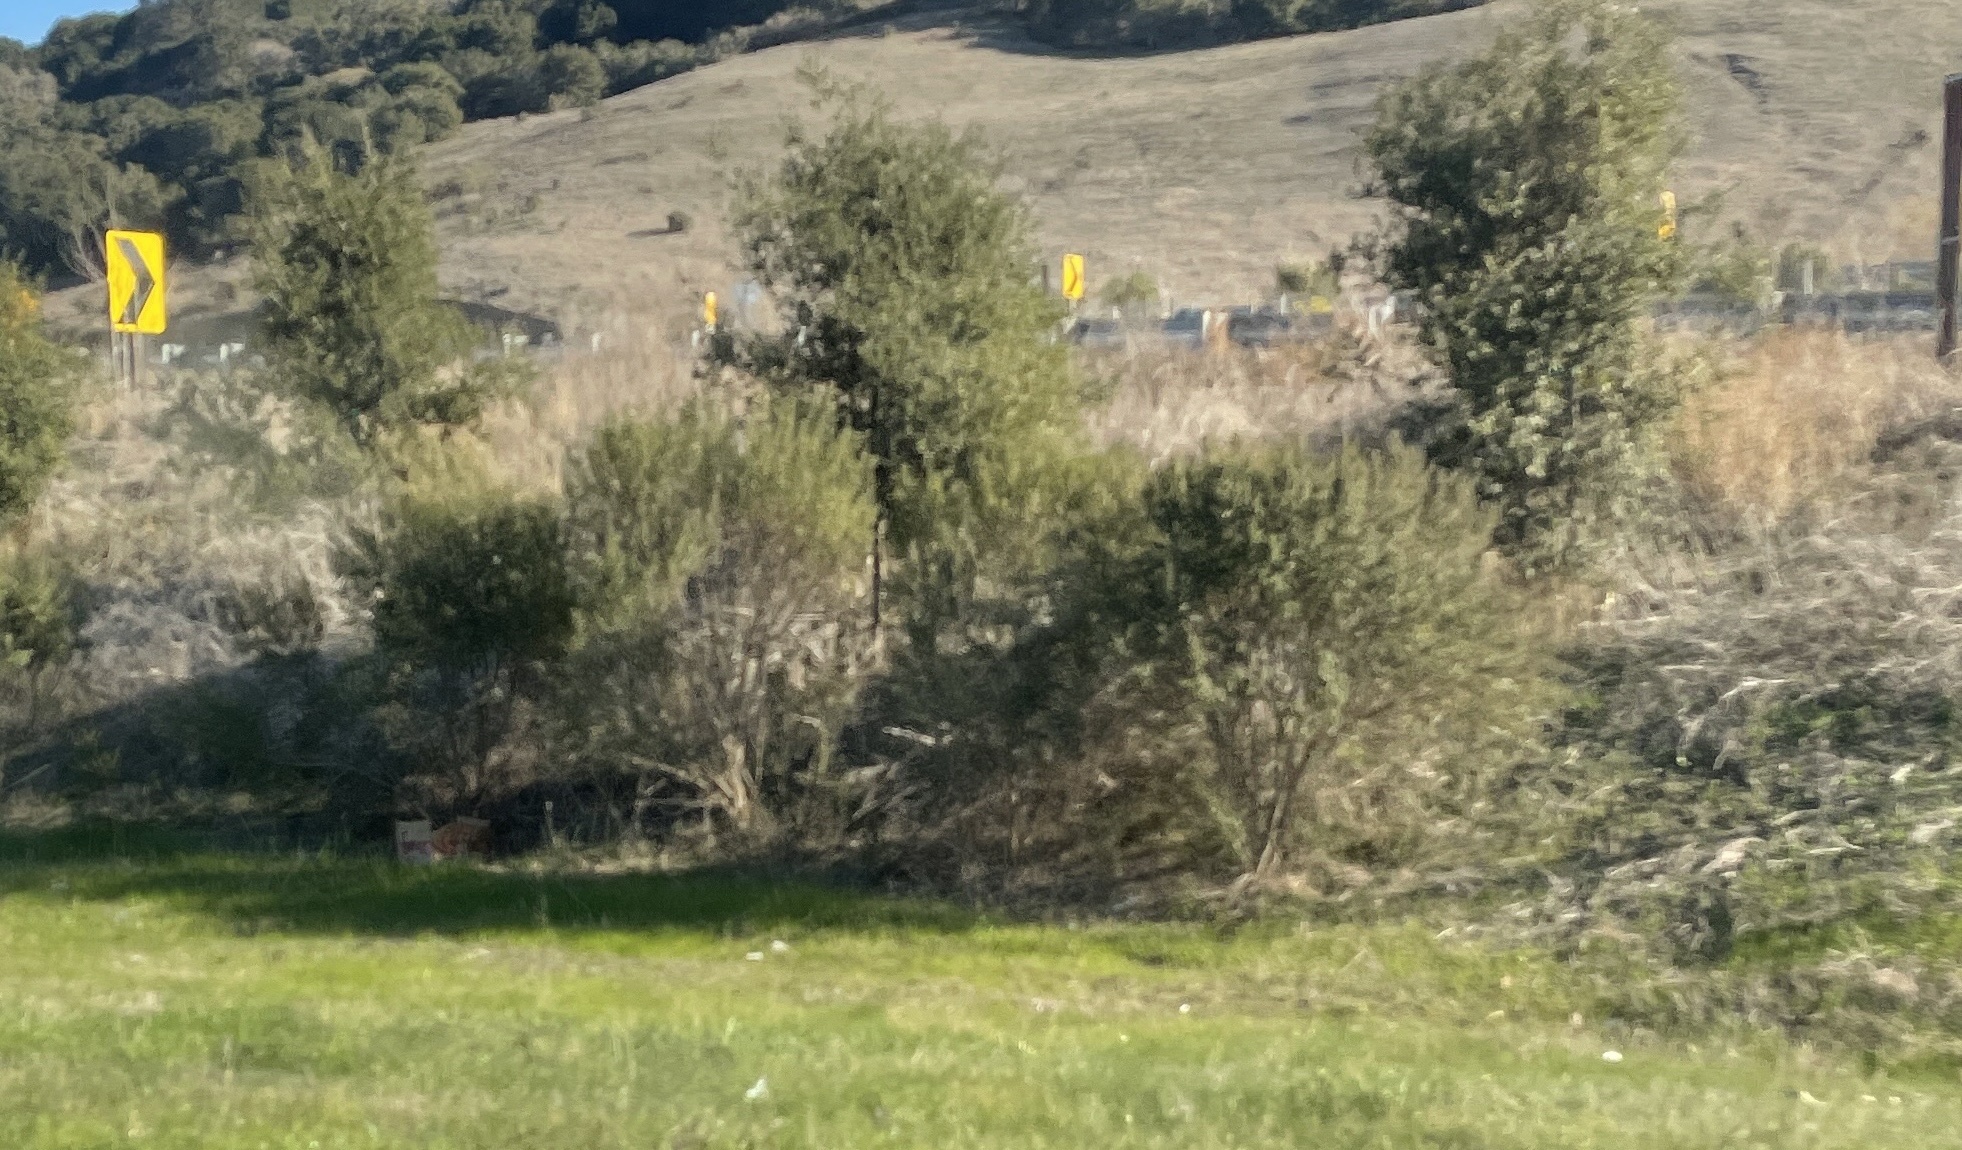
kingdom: Plantae
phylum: Tracheophyta
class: Magnoliopsida
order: Asterales
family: Asteraceae
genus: Baccharis
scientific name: Baccharis pilularis
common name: Coyotebrush
